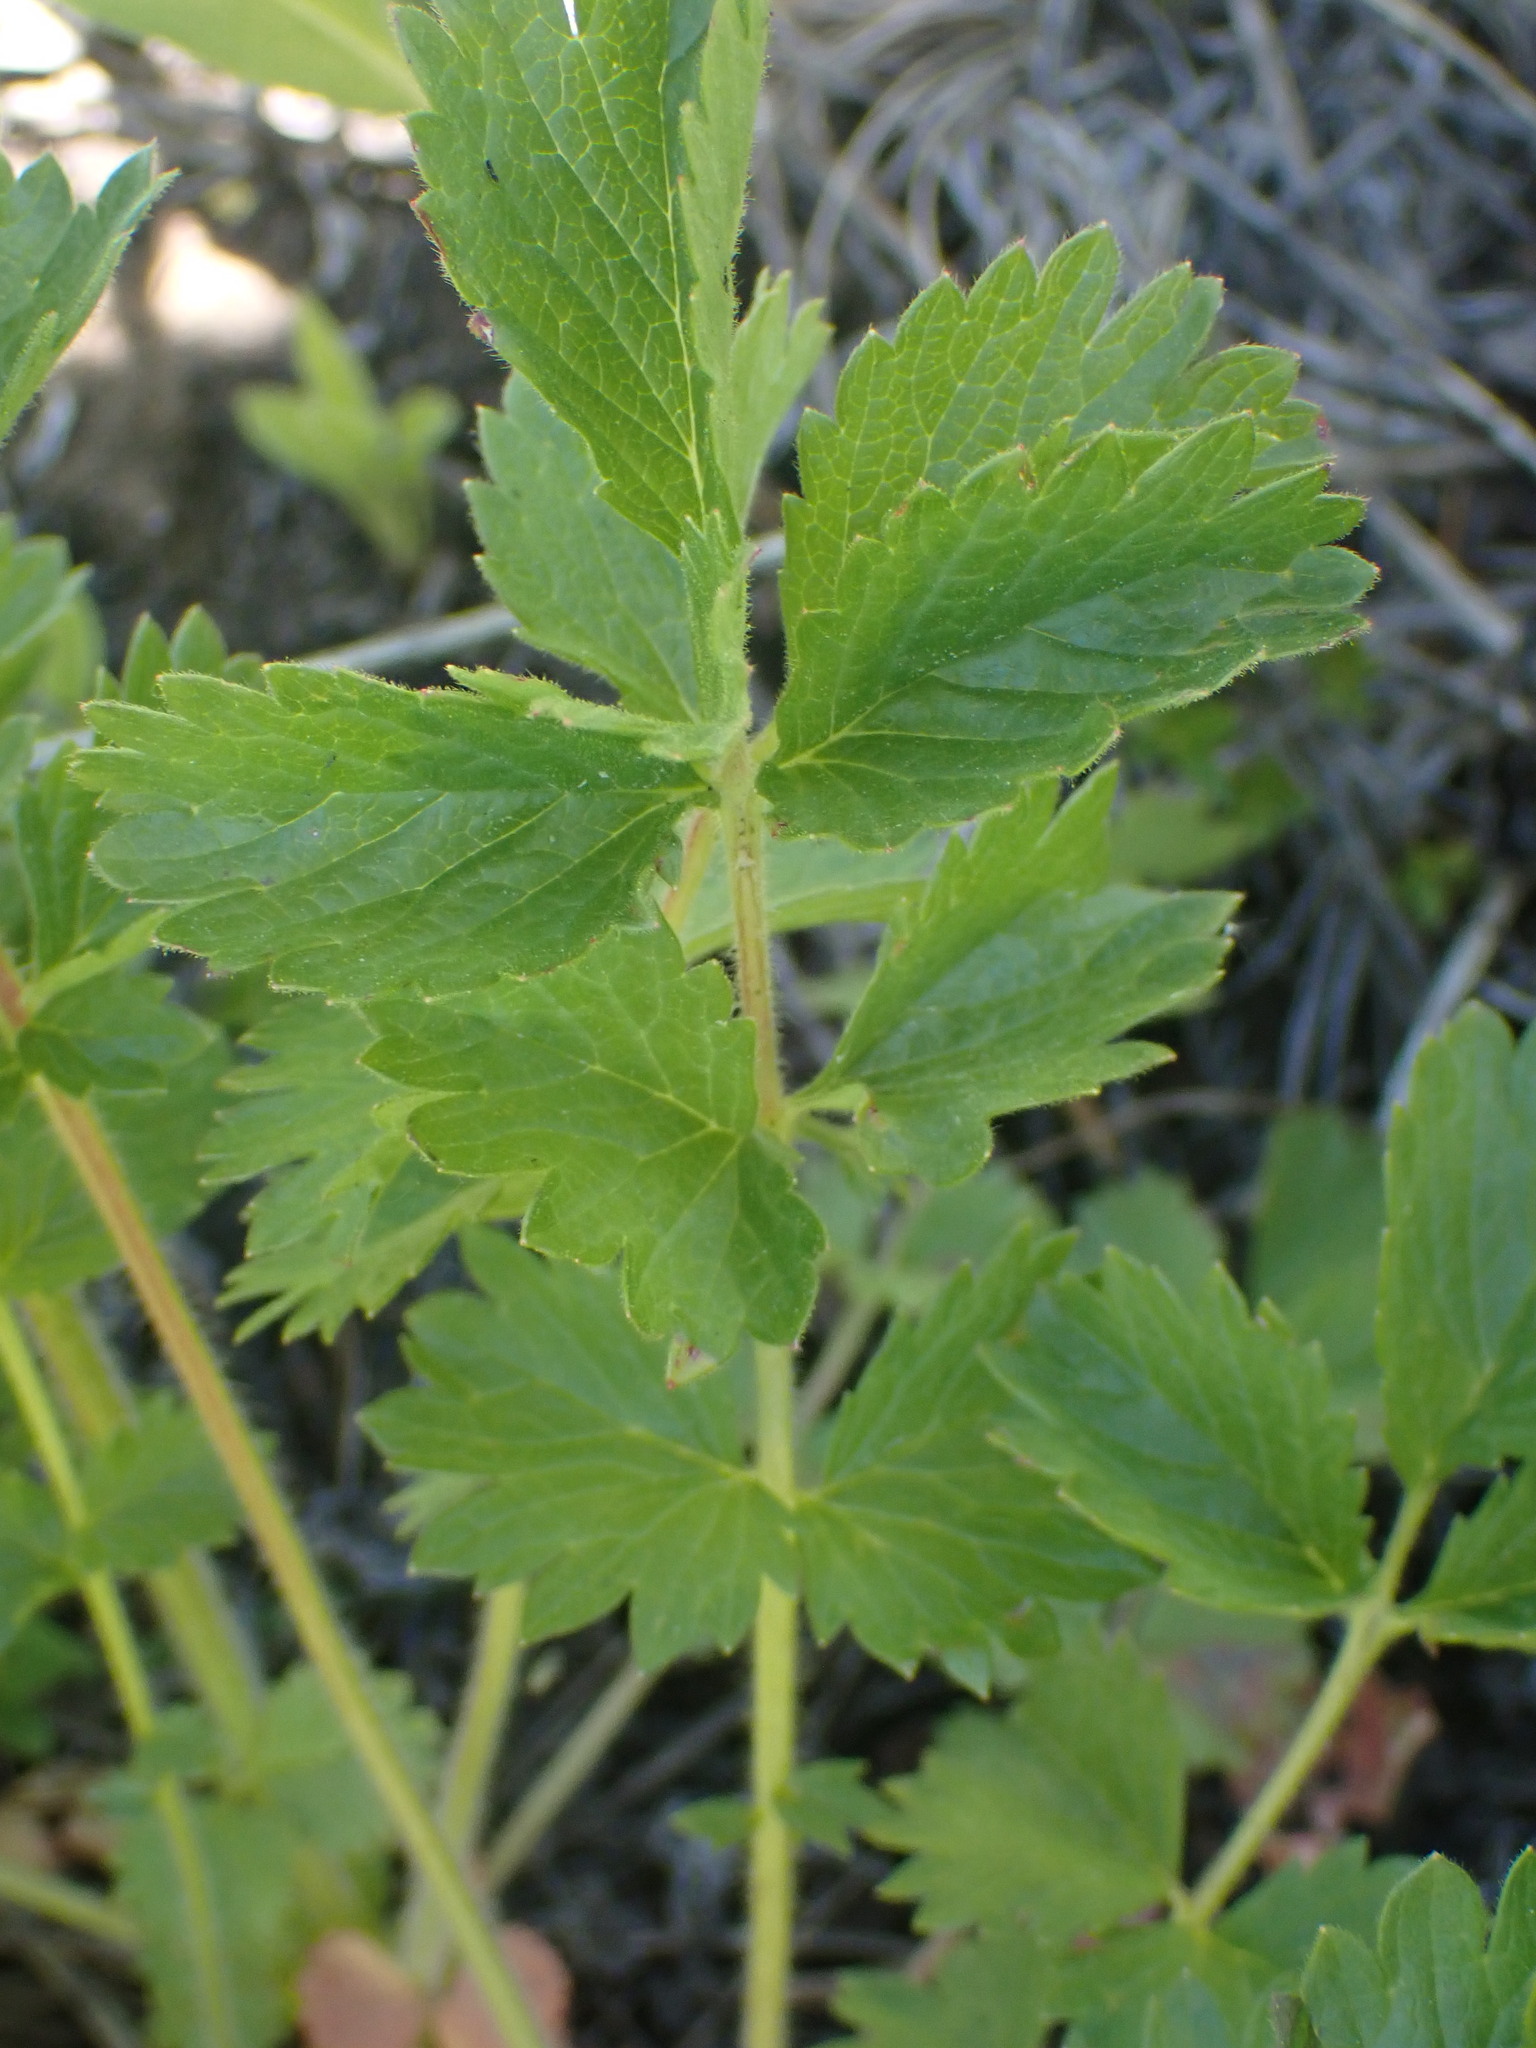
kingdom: Plantae
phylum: Tracheophyta
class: Magnoliopsida
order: Rosales
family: Rosaceae
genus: Drymocallis
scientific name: Drymocallis convallaria
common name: Cream cinquefoil
